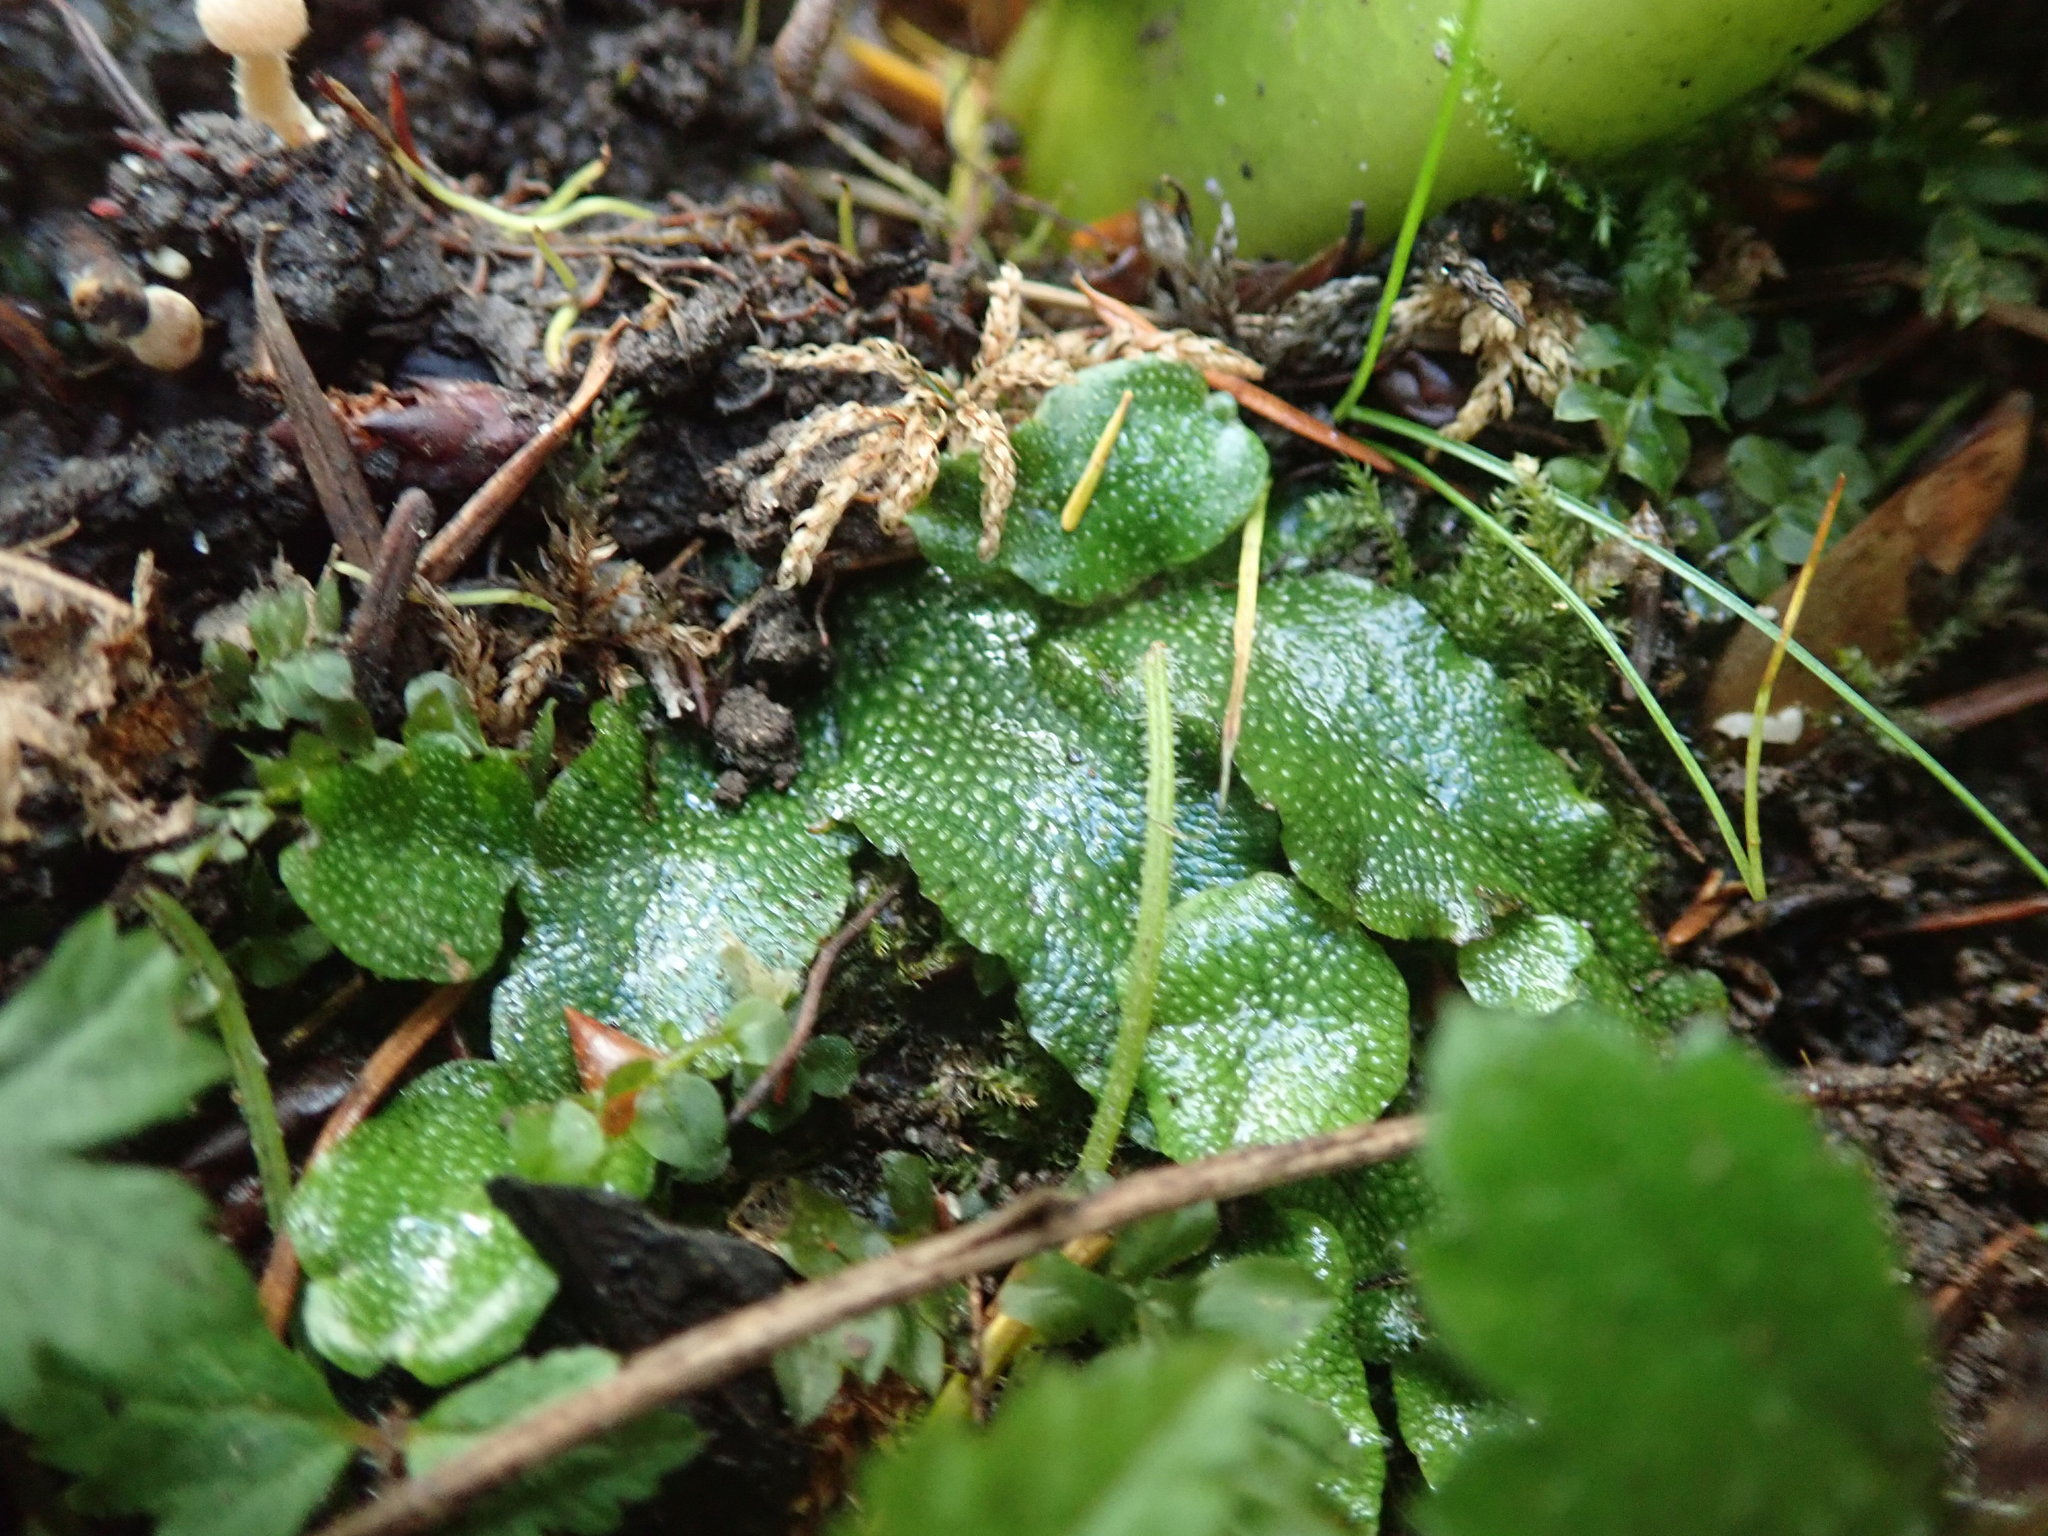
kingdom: Plantae
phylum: Marchantiophyta
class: Marchantiopsida
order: Marchantiales
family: Conocephalaceae
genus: Conocephalum
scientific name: Conocephalum salebrosum
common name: Cat-tongue liverwort
